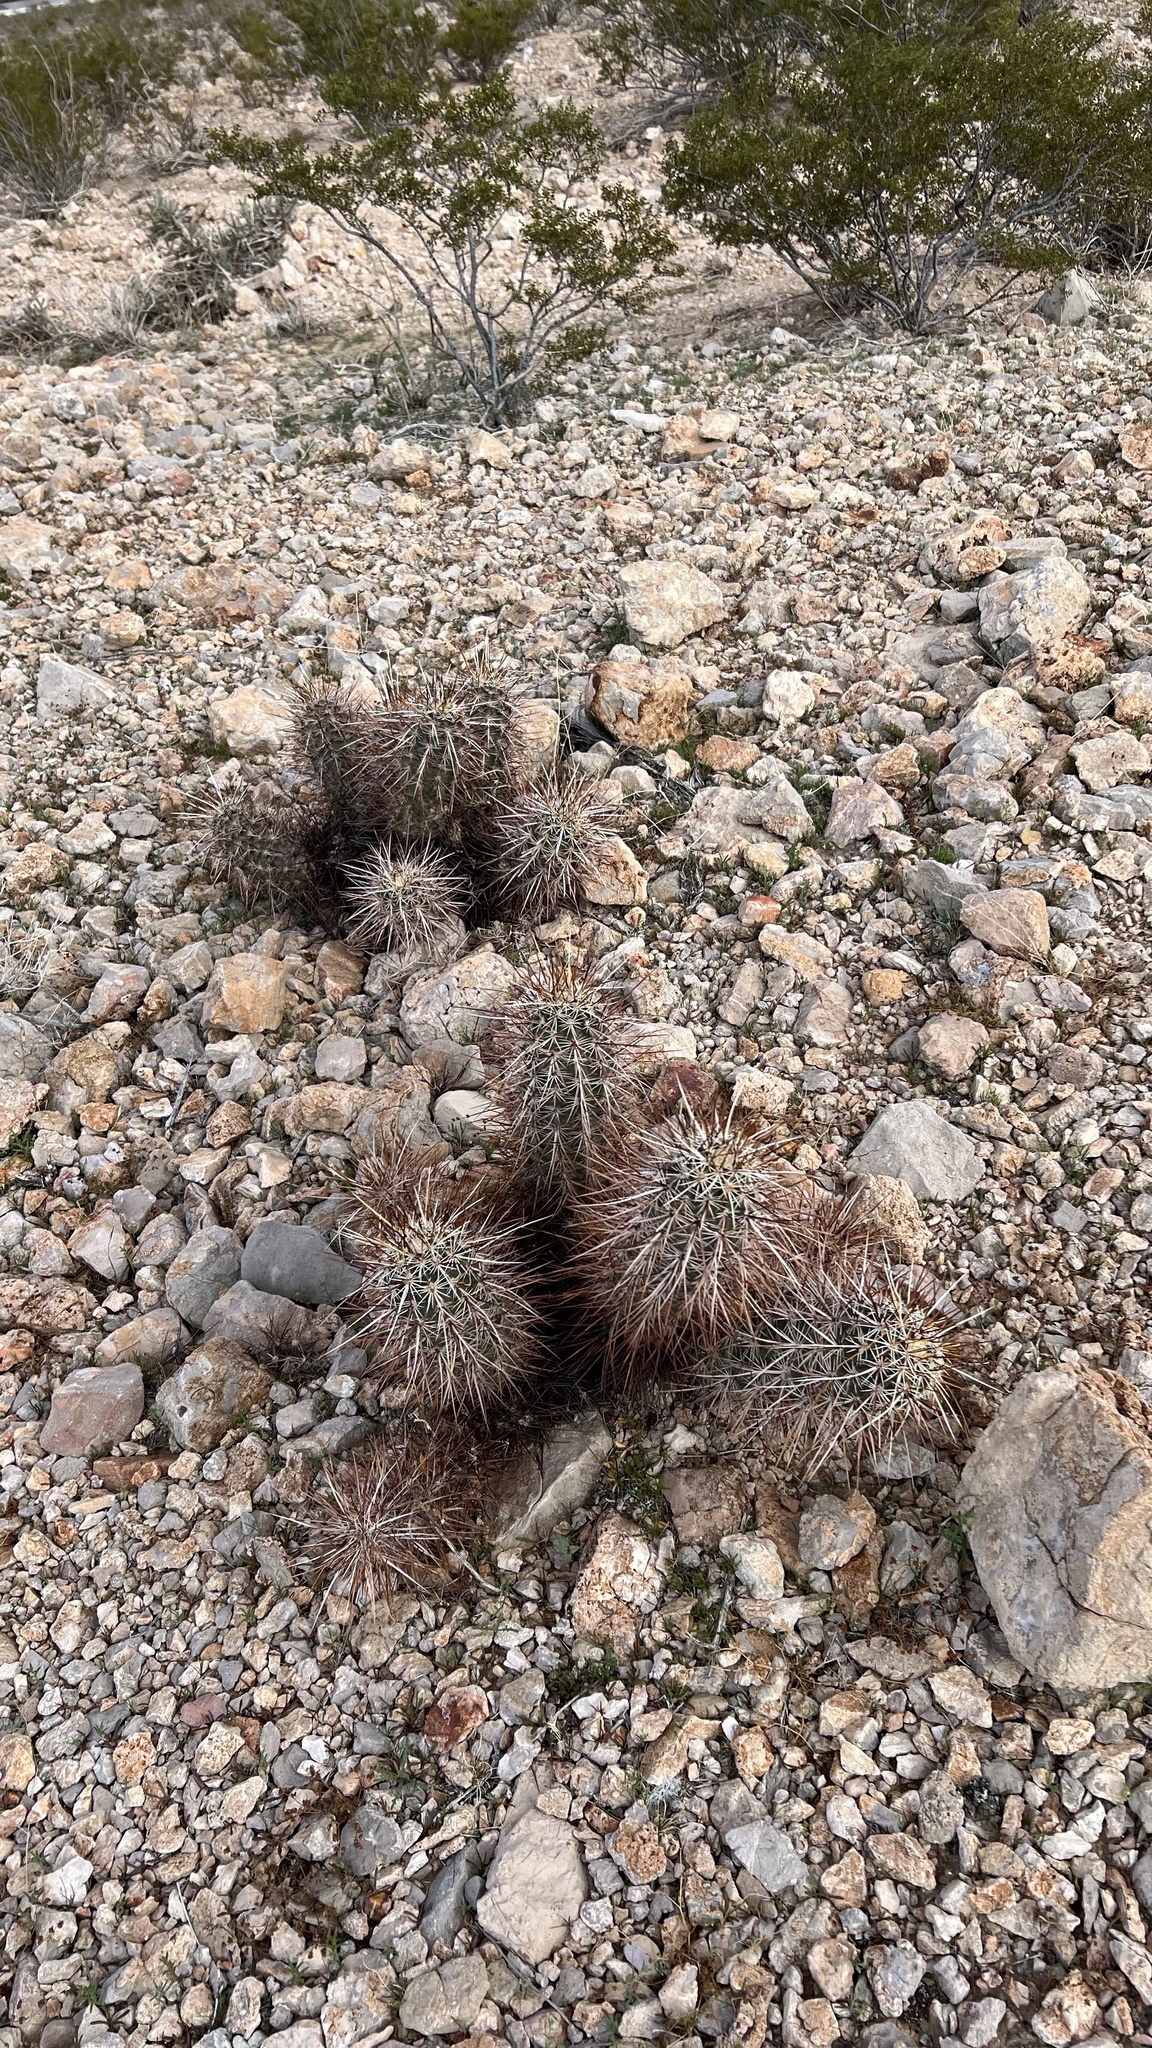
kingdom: Plantae
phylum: Tracheophyta
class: Magnoliopsida
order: Caryophyllales
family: Cactaceae
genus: Echinocereus
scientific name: Echinocereus engelmannii
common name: Engelmann's hedgehog cactus
